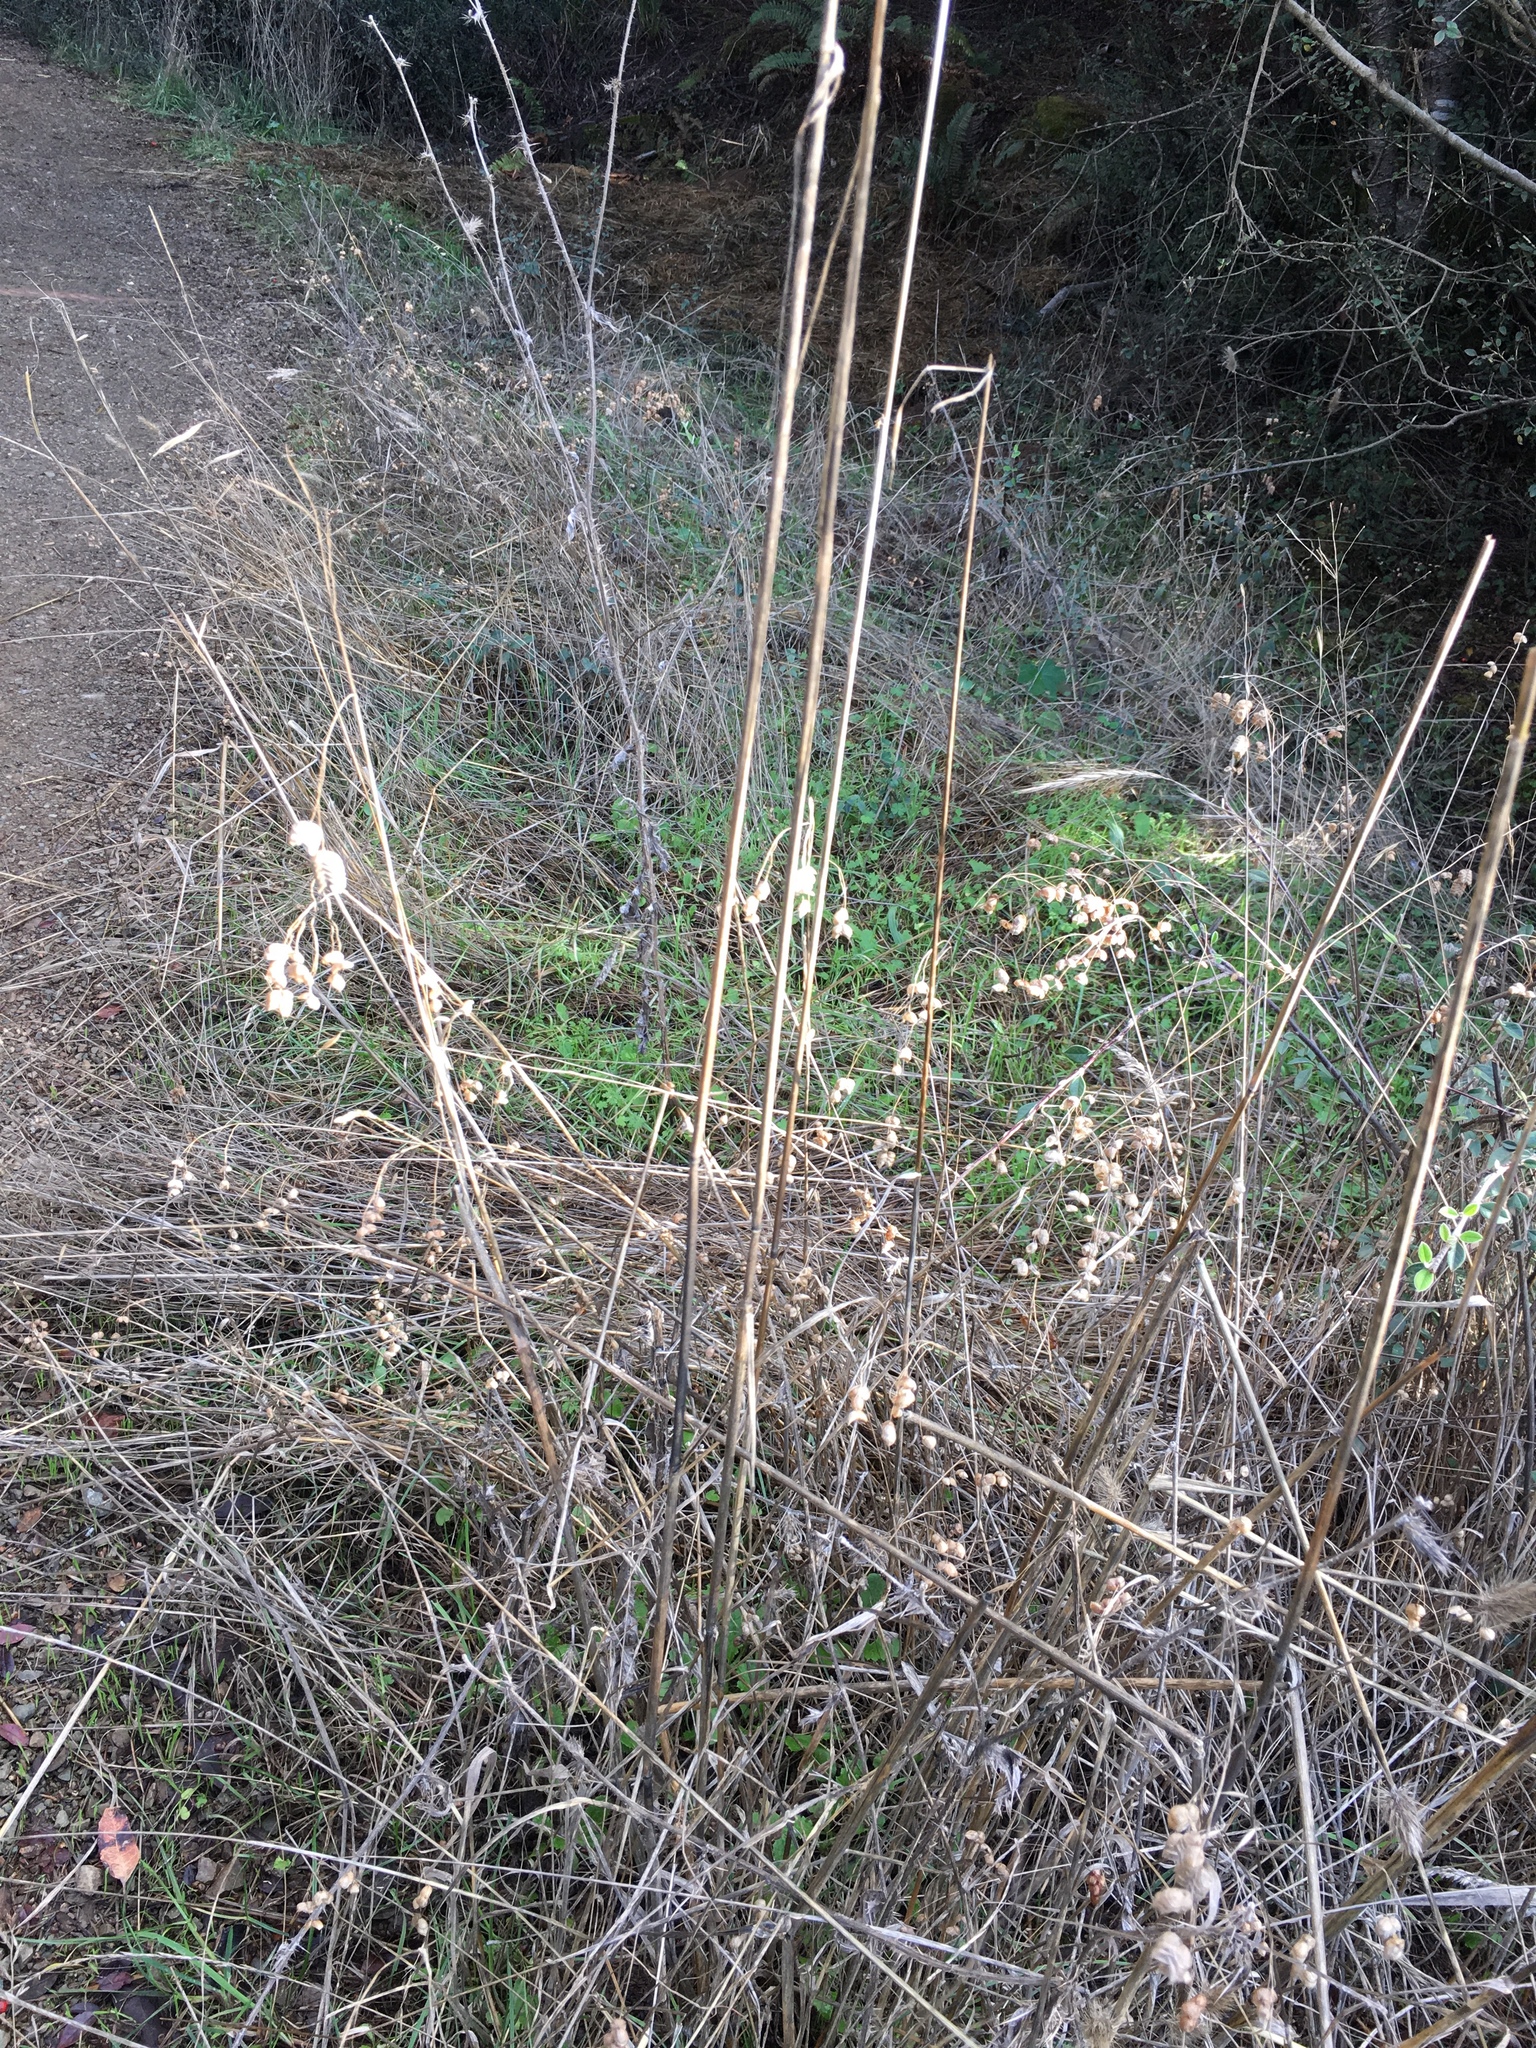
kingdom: Plantae
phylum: Tracheophyta
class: Liliopsida
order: Poales
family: Poaceae
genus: Briza
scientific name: Briza maxima
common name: Big quakinggrass
